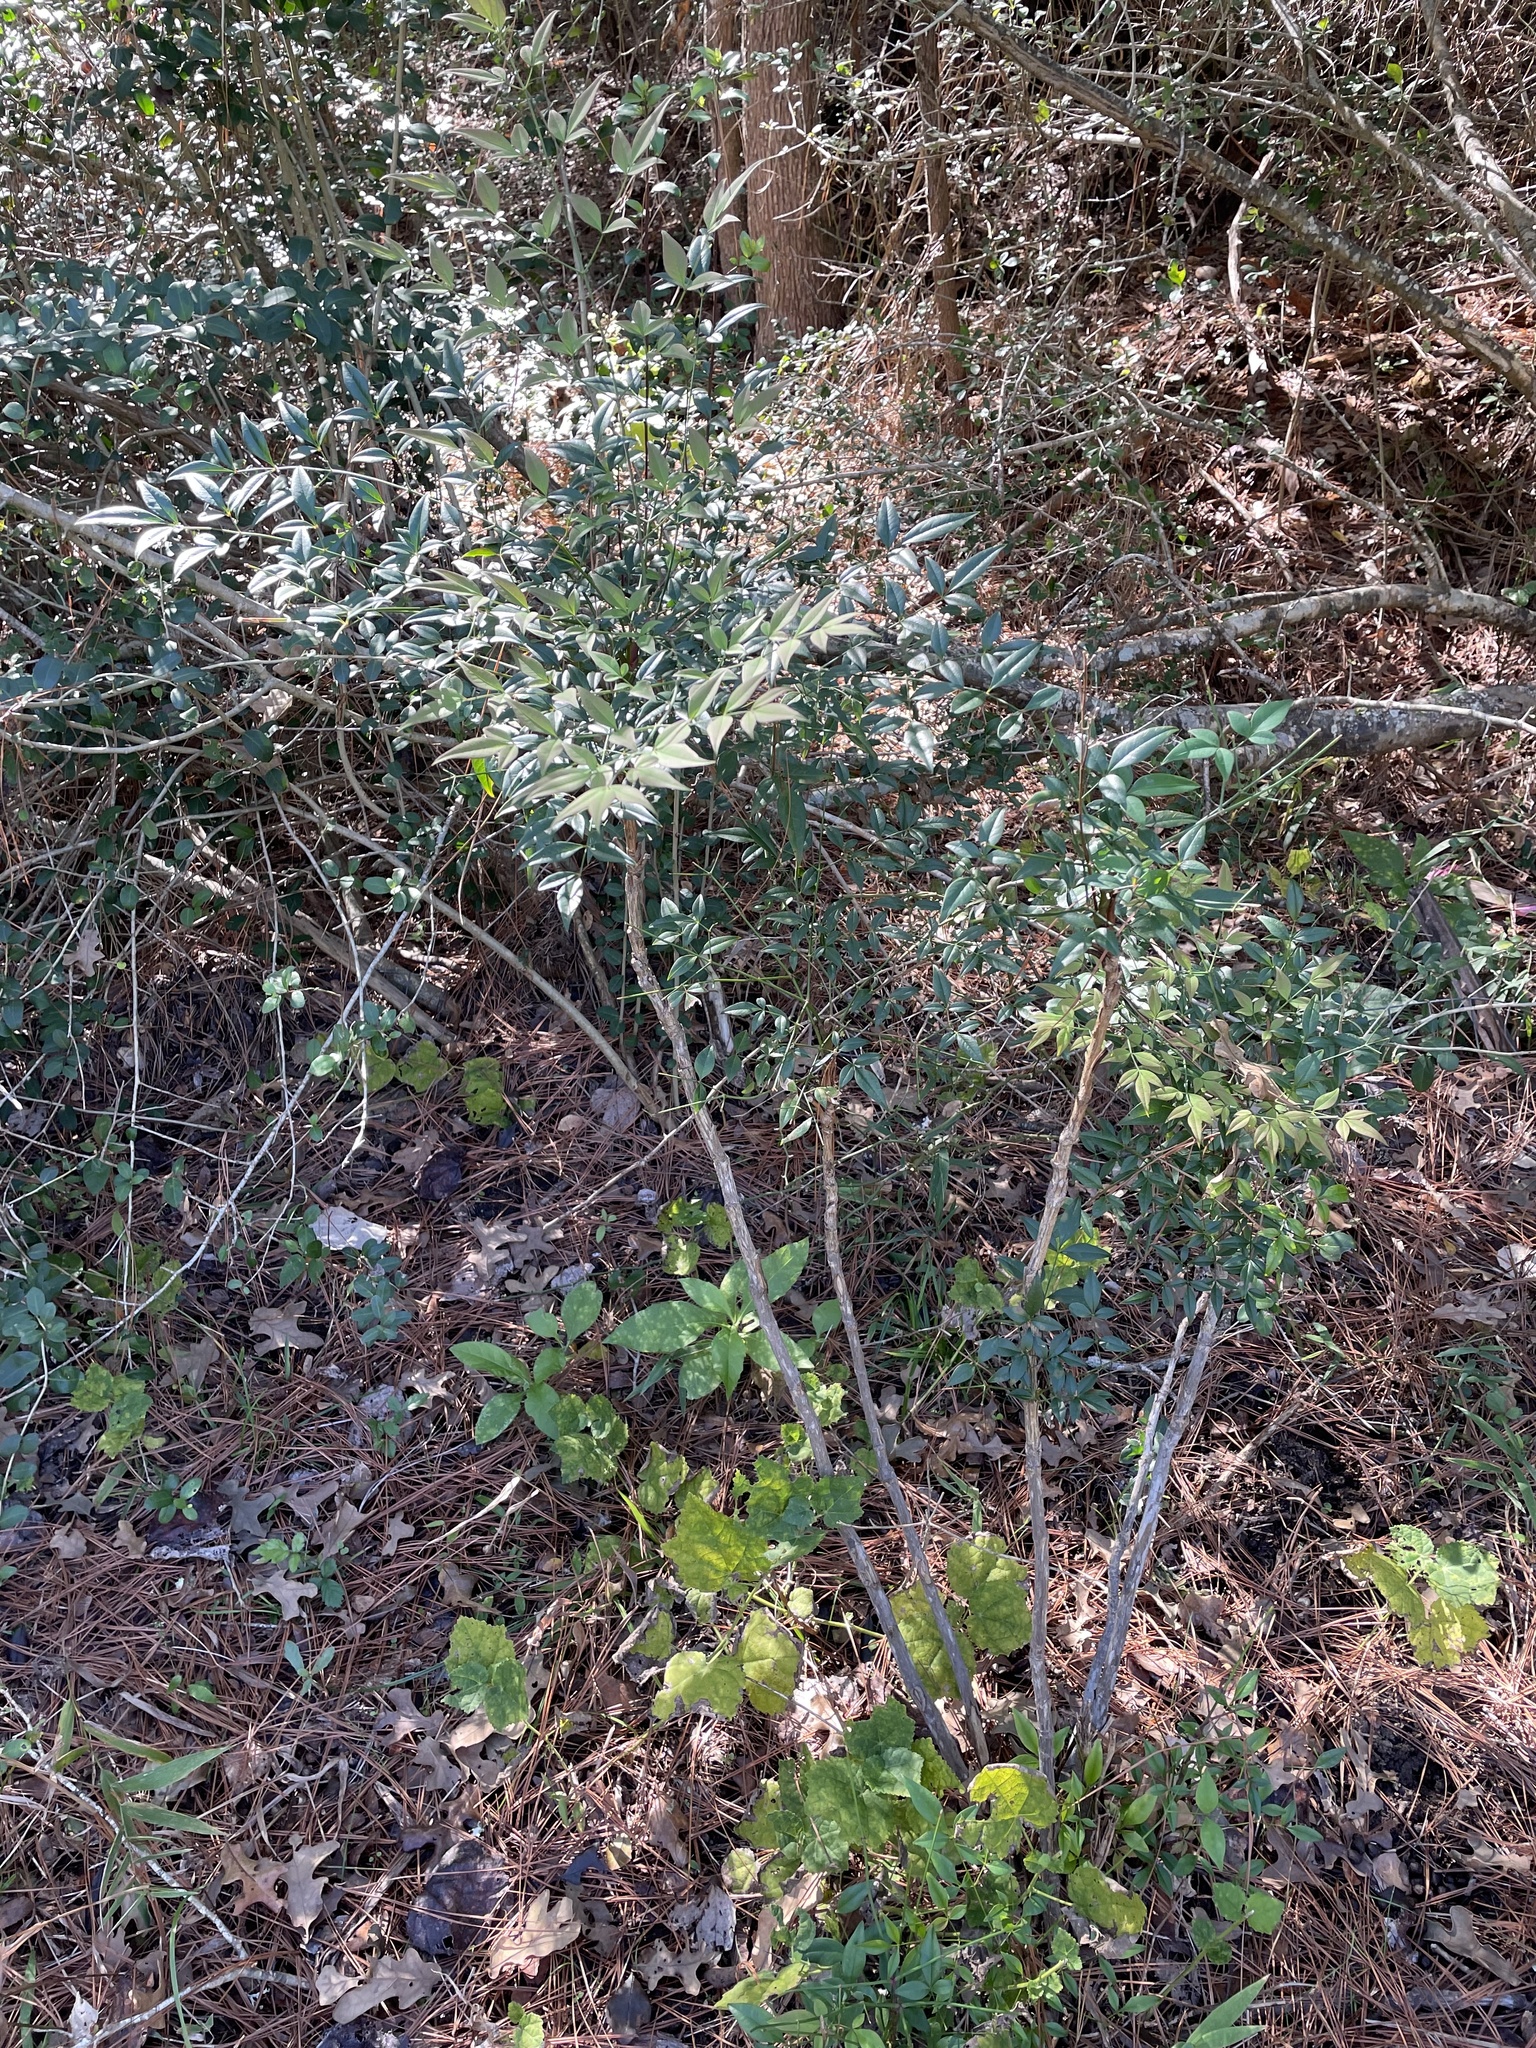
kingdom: Plantae
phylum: Tracheophyta
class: Magnoliopsida
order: Ranunculales
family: Berberidaceae
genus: Nandina
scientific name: Nandina domestica
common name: Sacred bamboo
